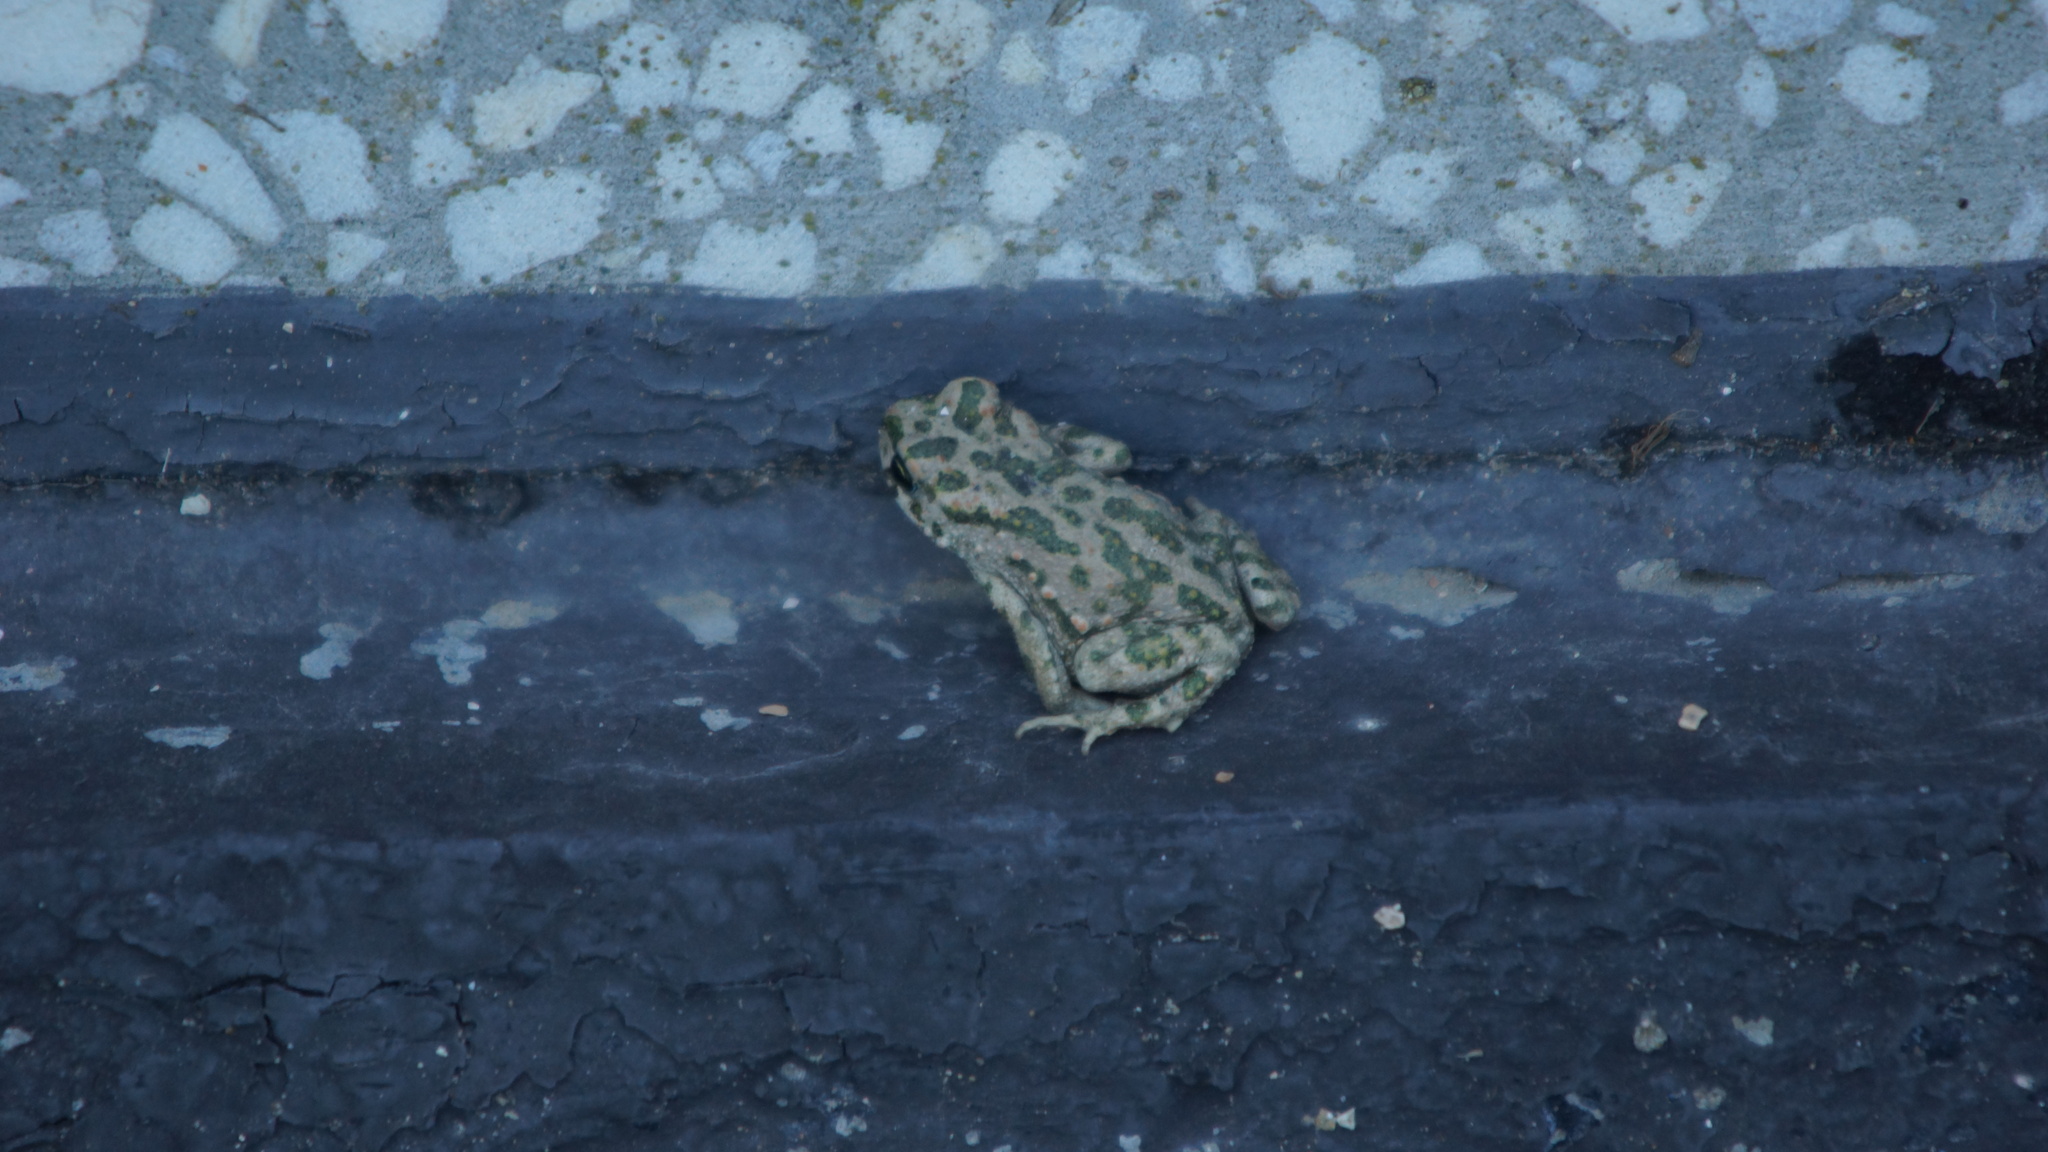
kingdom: Animalia
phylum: Chordata
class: Amphibia
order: Anura
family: Bufonidae
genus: Bufotes
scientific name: Bufotes viridis
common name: European green toad
